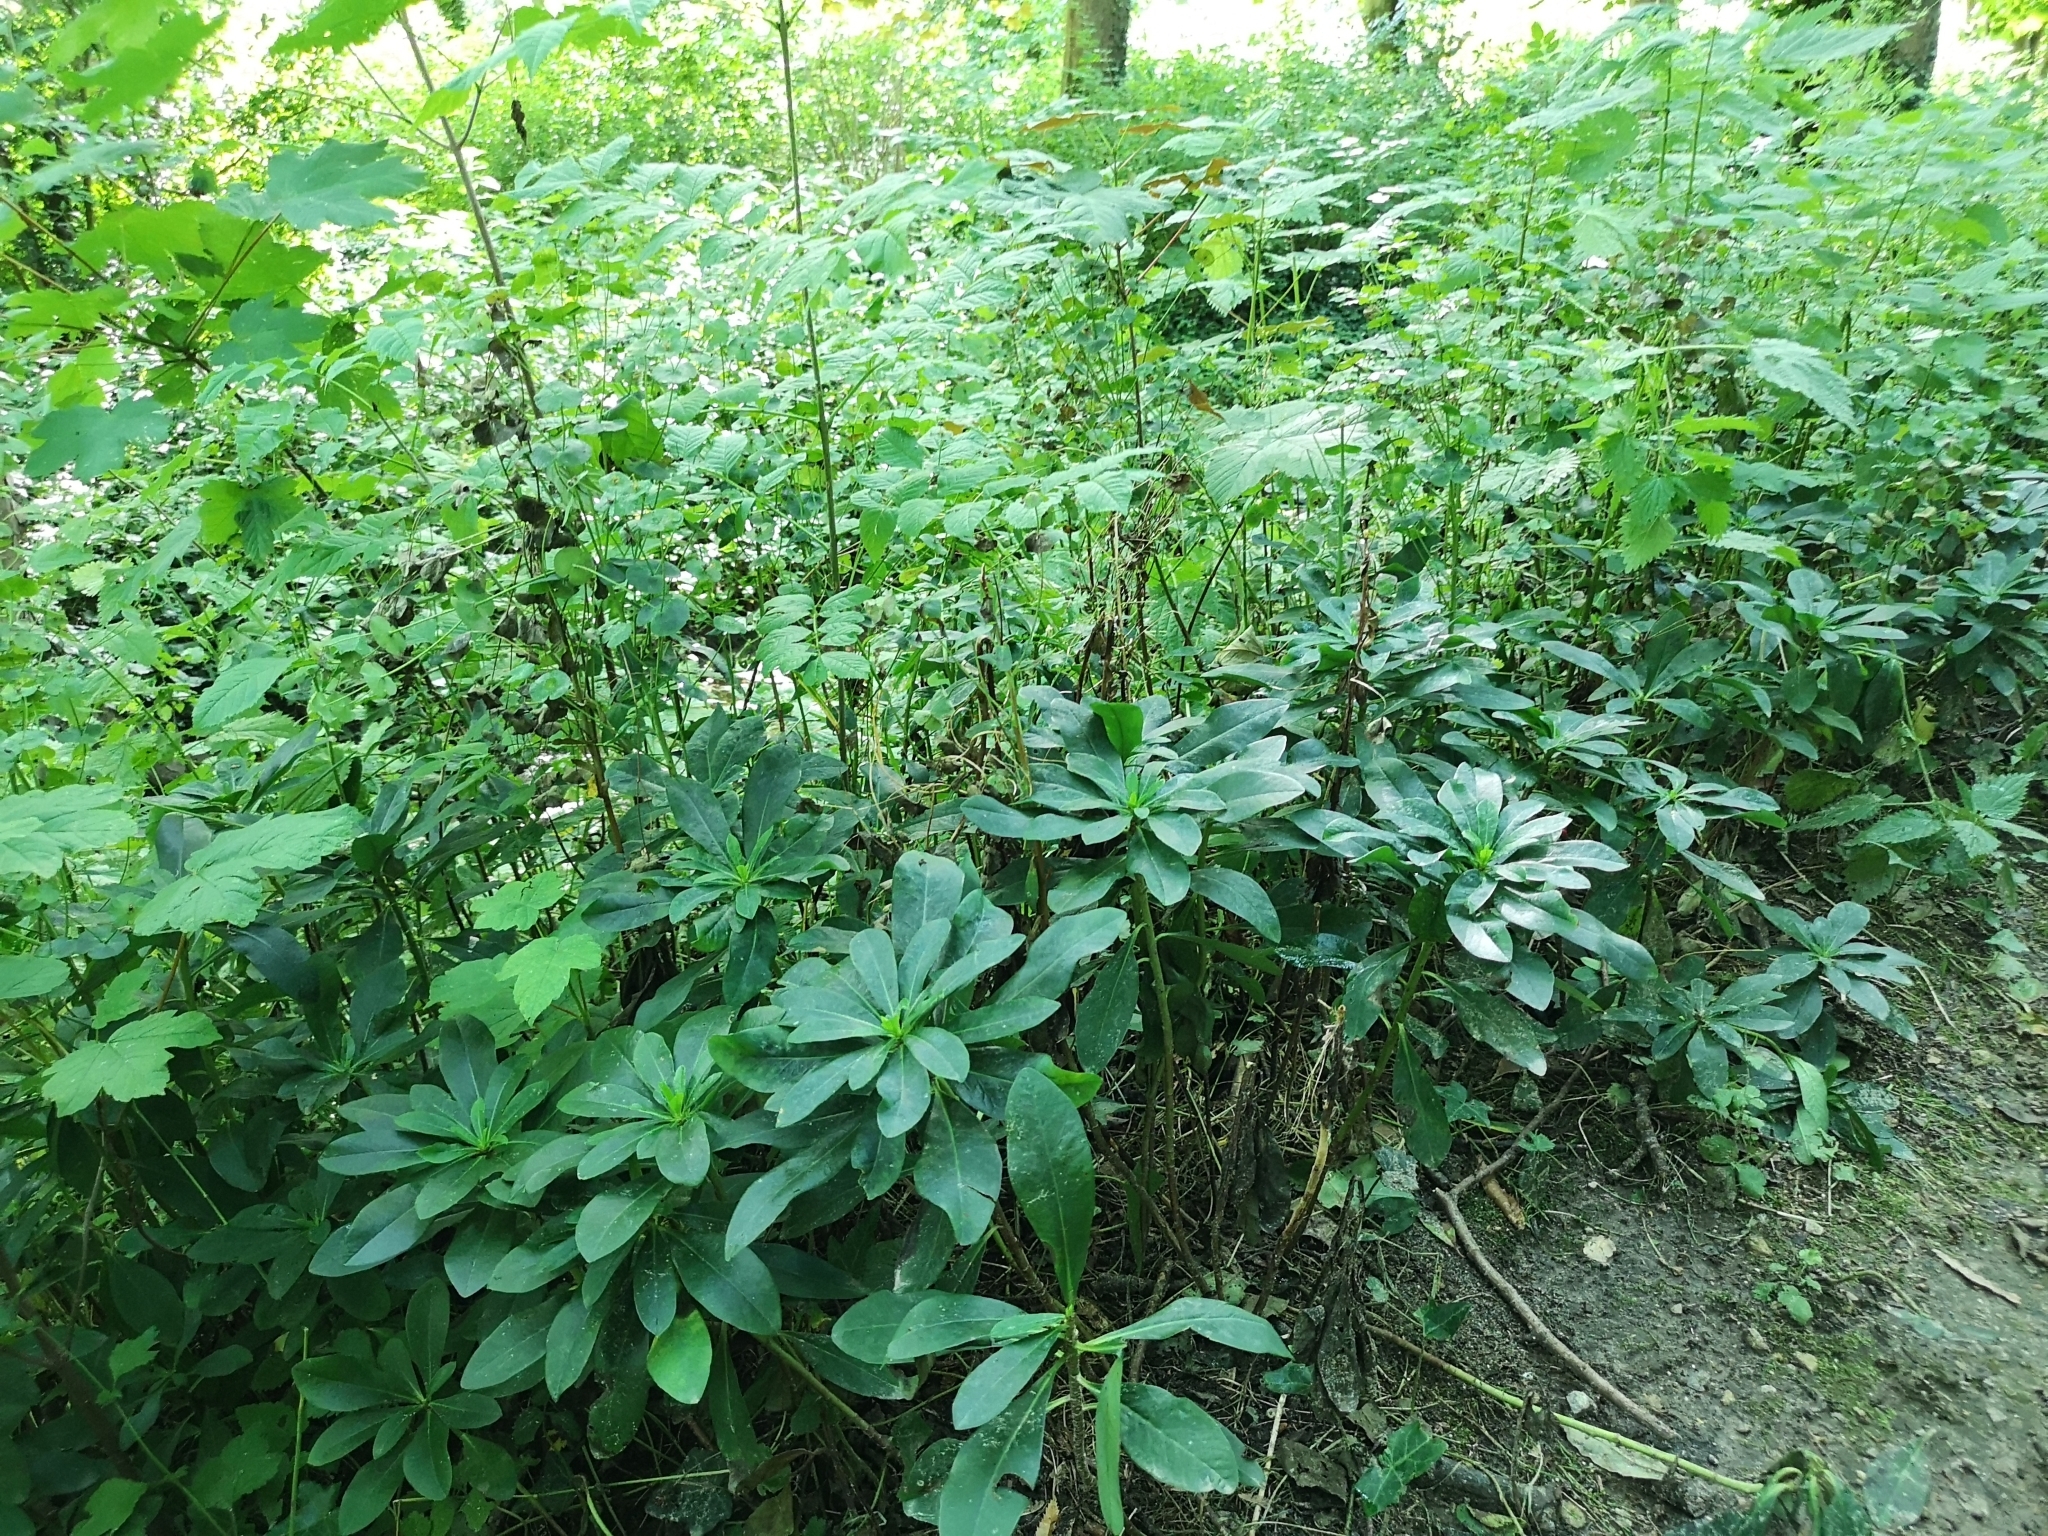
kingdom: Plantae
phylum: Tracheophyta
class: Magnoliopsida
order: Malpighiales
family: Euphorbiaceae
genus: Euphorbia
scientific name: Euphorbia amygdaloides
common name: Wood spurge
